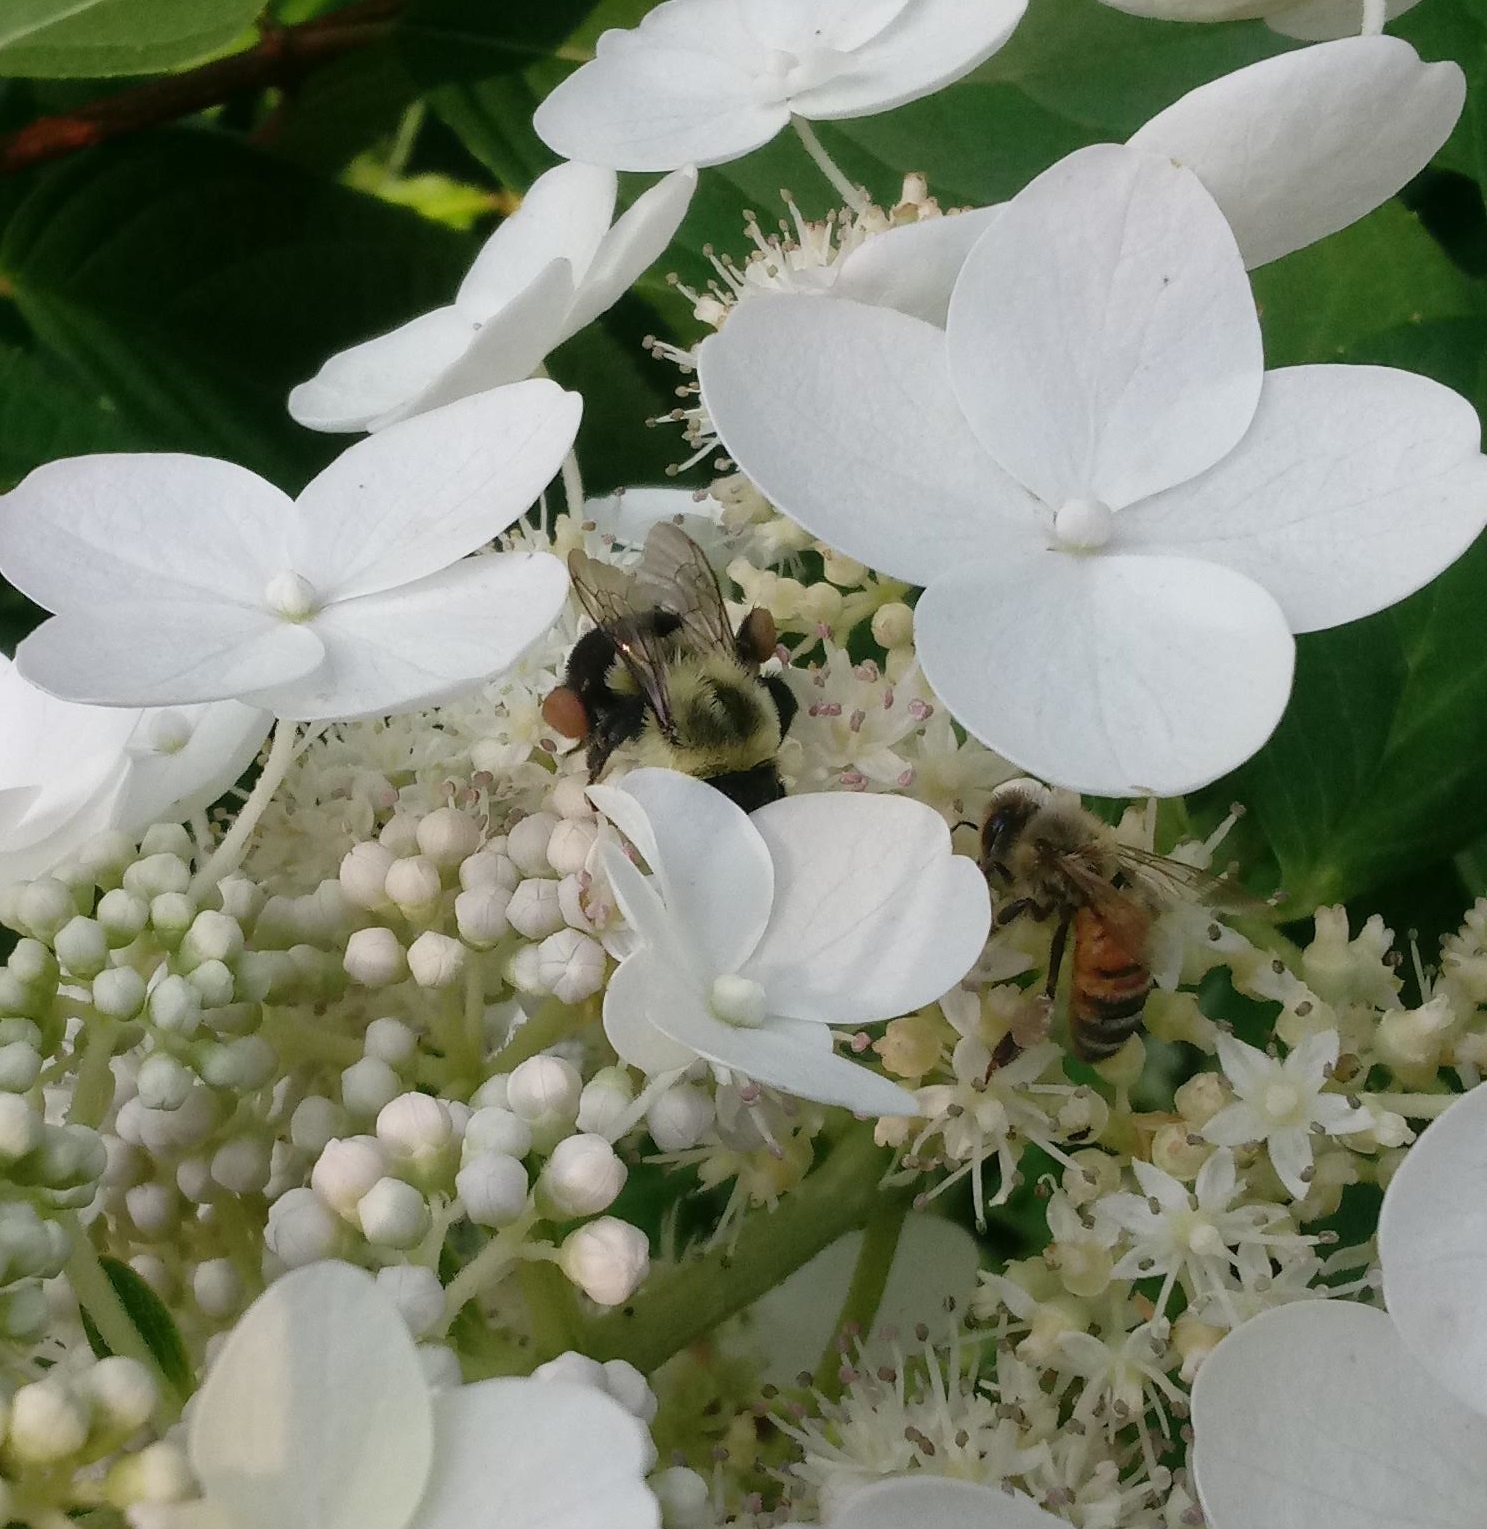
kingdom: Animalia
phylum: Arthropoda
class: Insecta
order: Hymenoptera
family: Apidae
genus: Bombus
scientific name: Bombus impatiens
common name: Common eastern bumble bee
